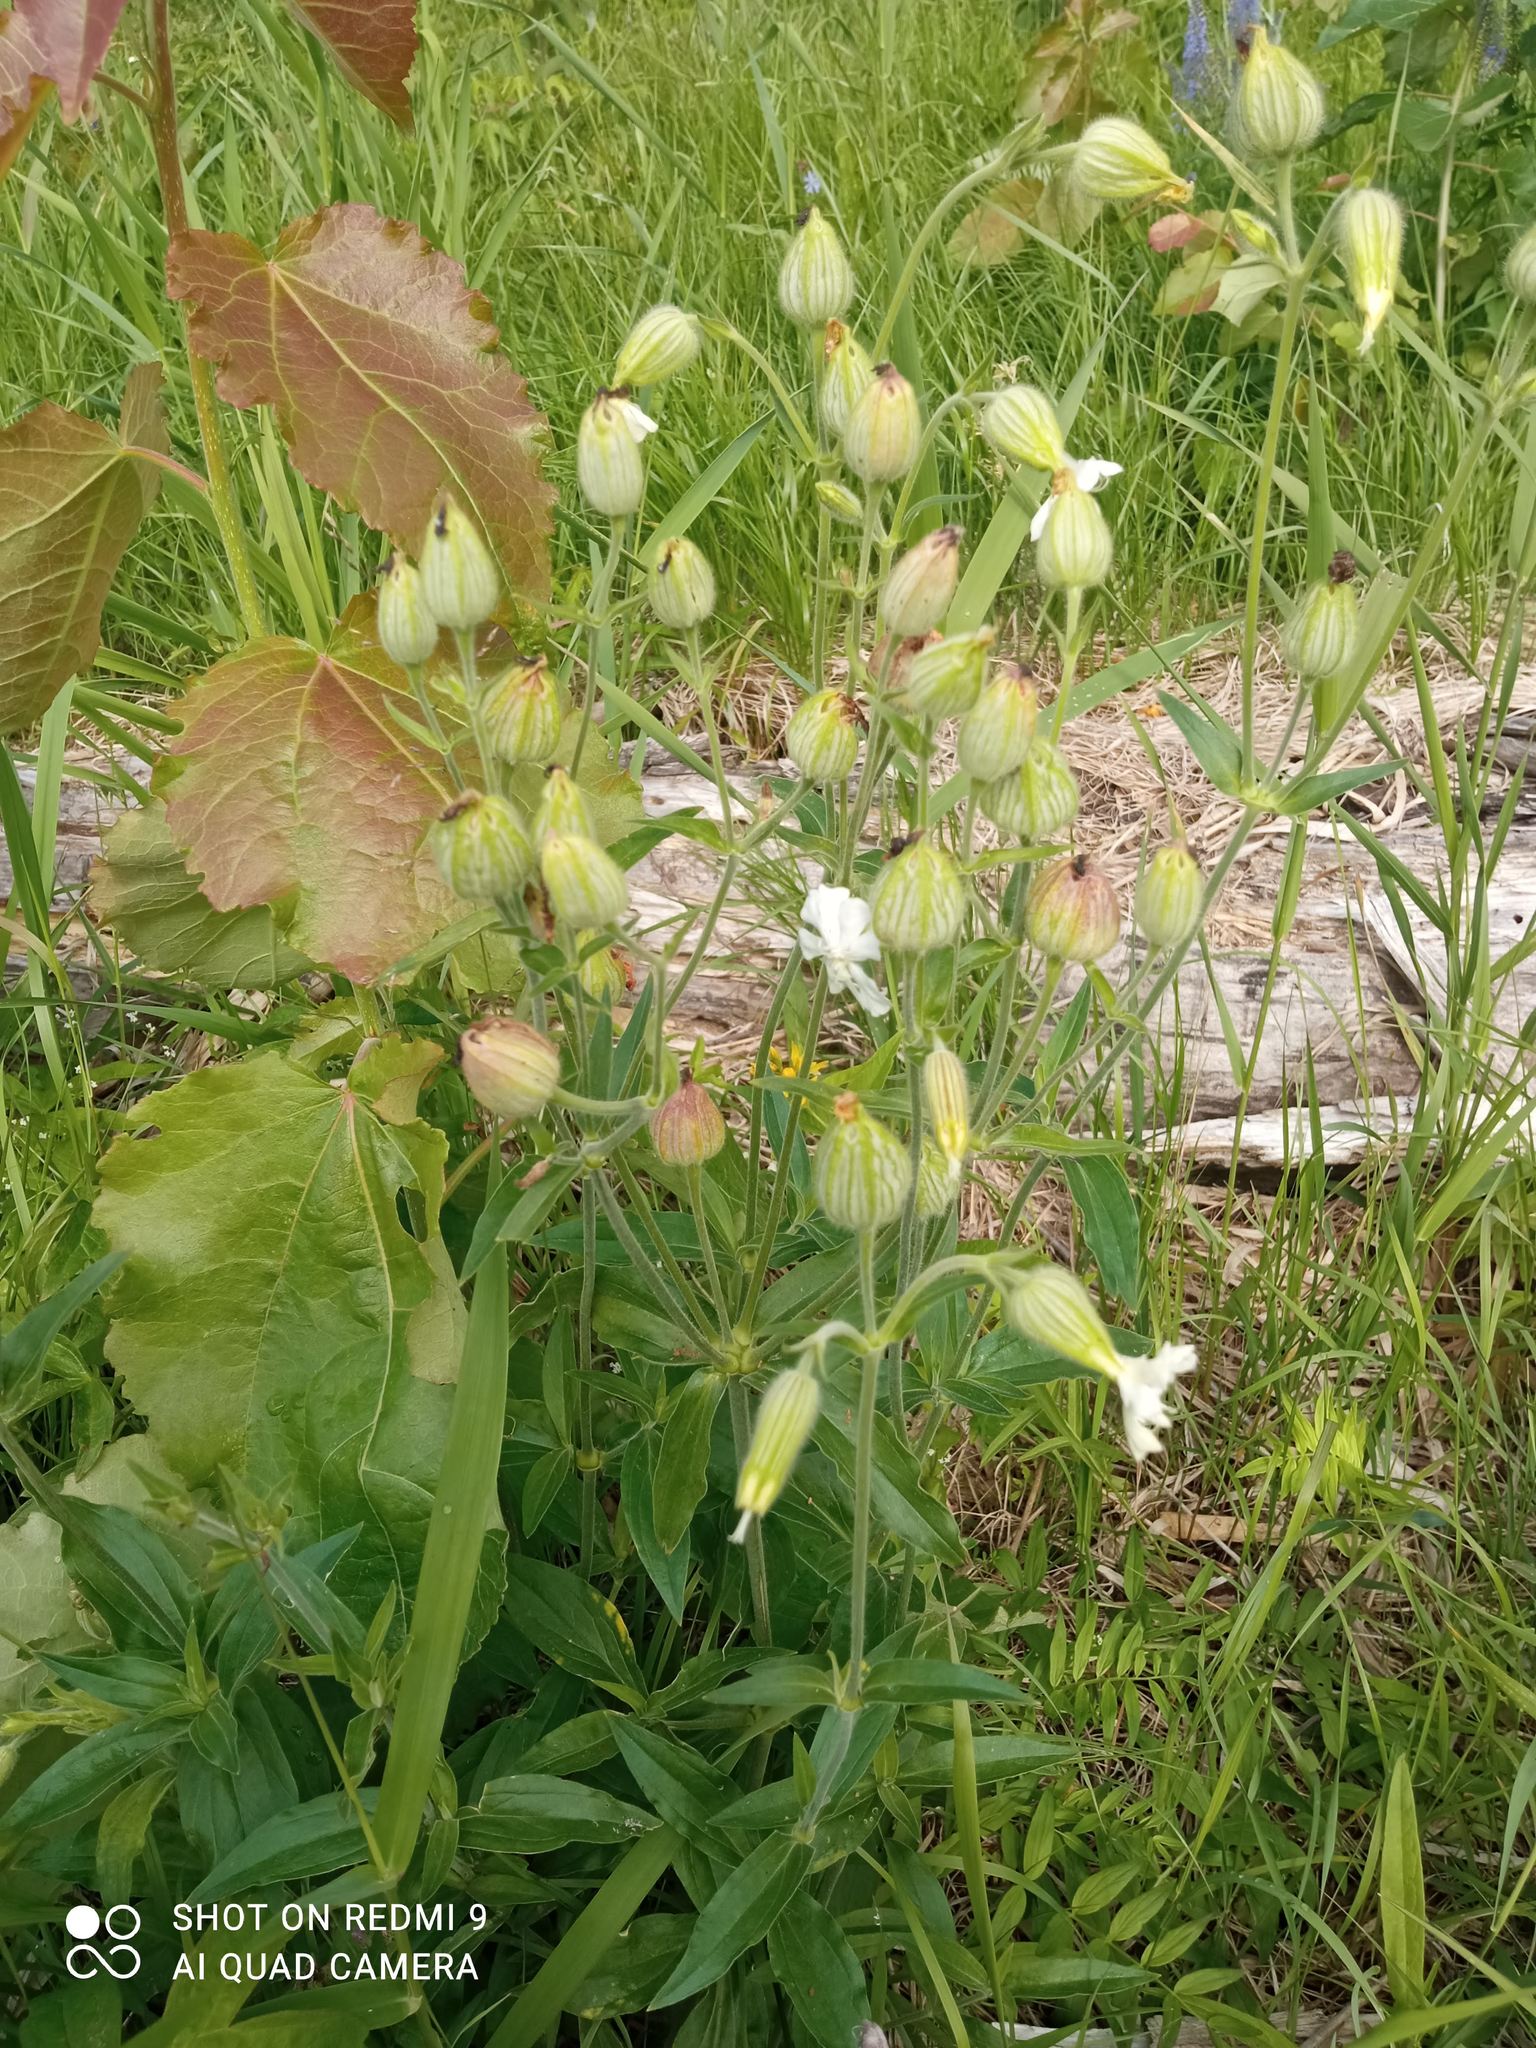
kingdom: Plantae
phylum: Tracheophyta
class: Magnoliopsida
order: Caryophyllales
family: Caryophyllaceae
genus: Silene
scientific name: Silene latifolia
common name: White campion
